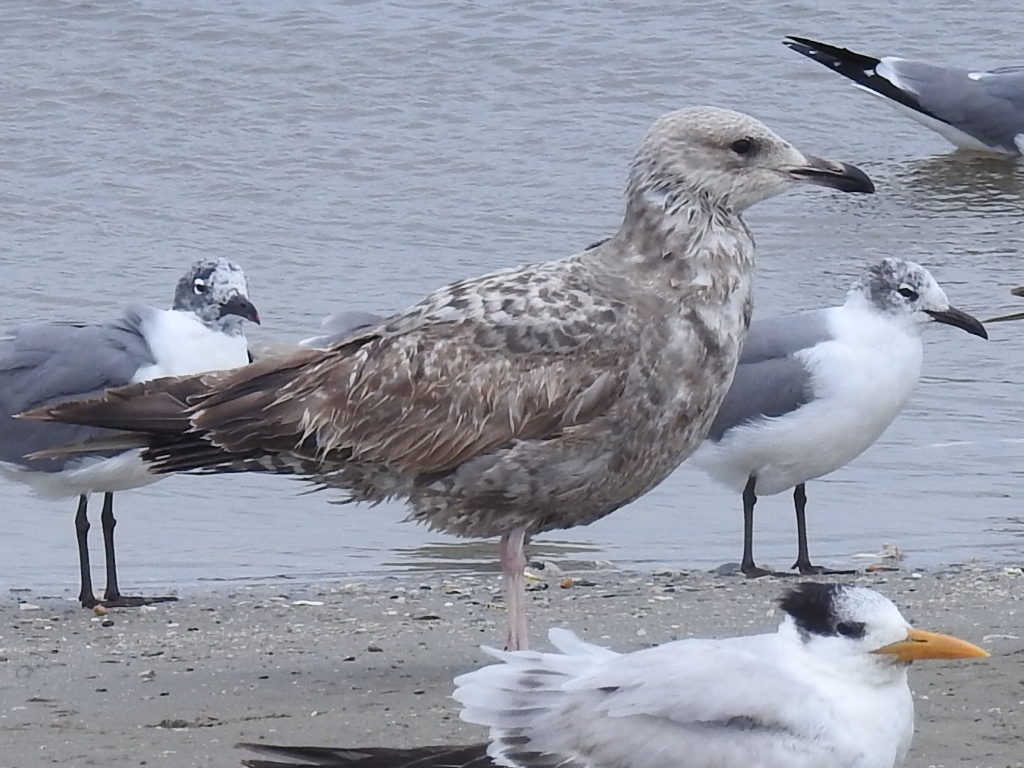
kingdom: Animalia
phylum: Chordata
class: Aves
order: Charadriiformes
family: Laridae
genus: Larus
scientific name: Larus argentatus
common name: Herring gull
